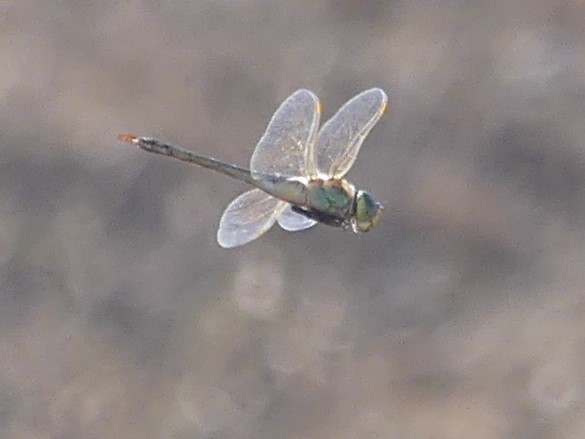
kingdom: Animalia
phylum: Arthropoda
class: Insecta
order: Odonata
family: Aeshnidae
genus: Anax
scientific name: Anax ephippiger
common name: Vagrant emperor
